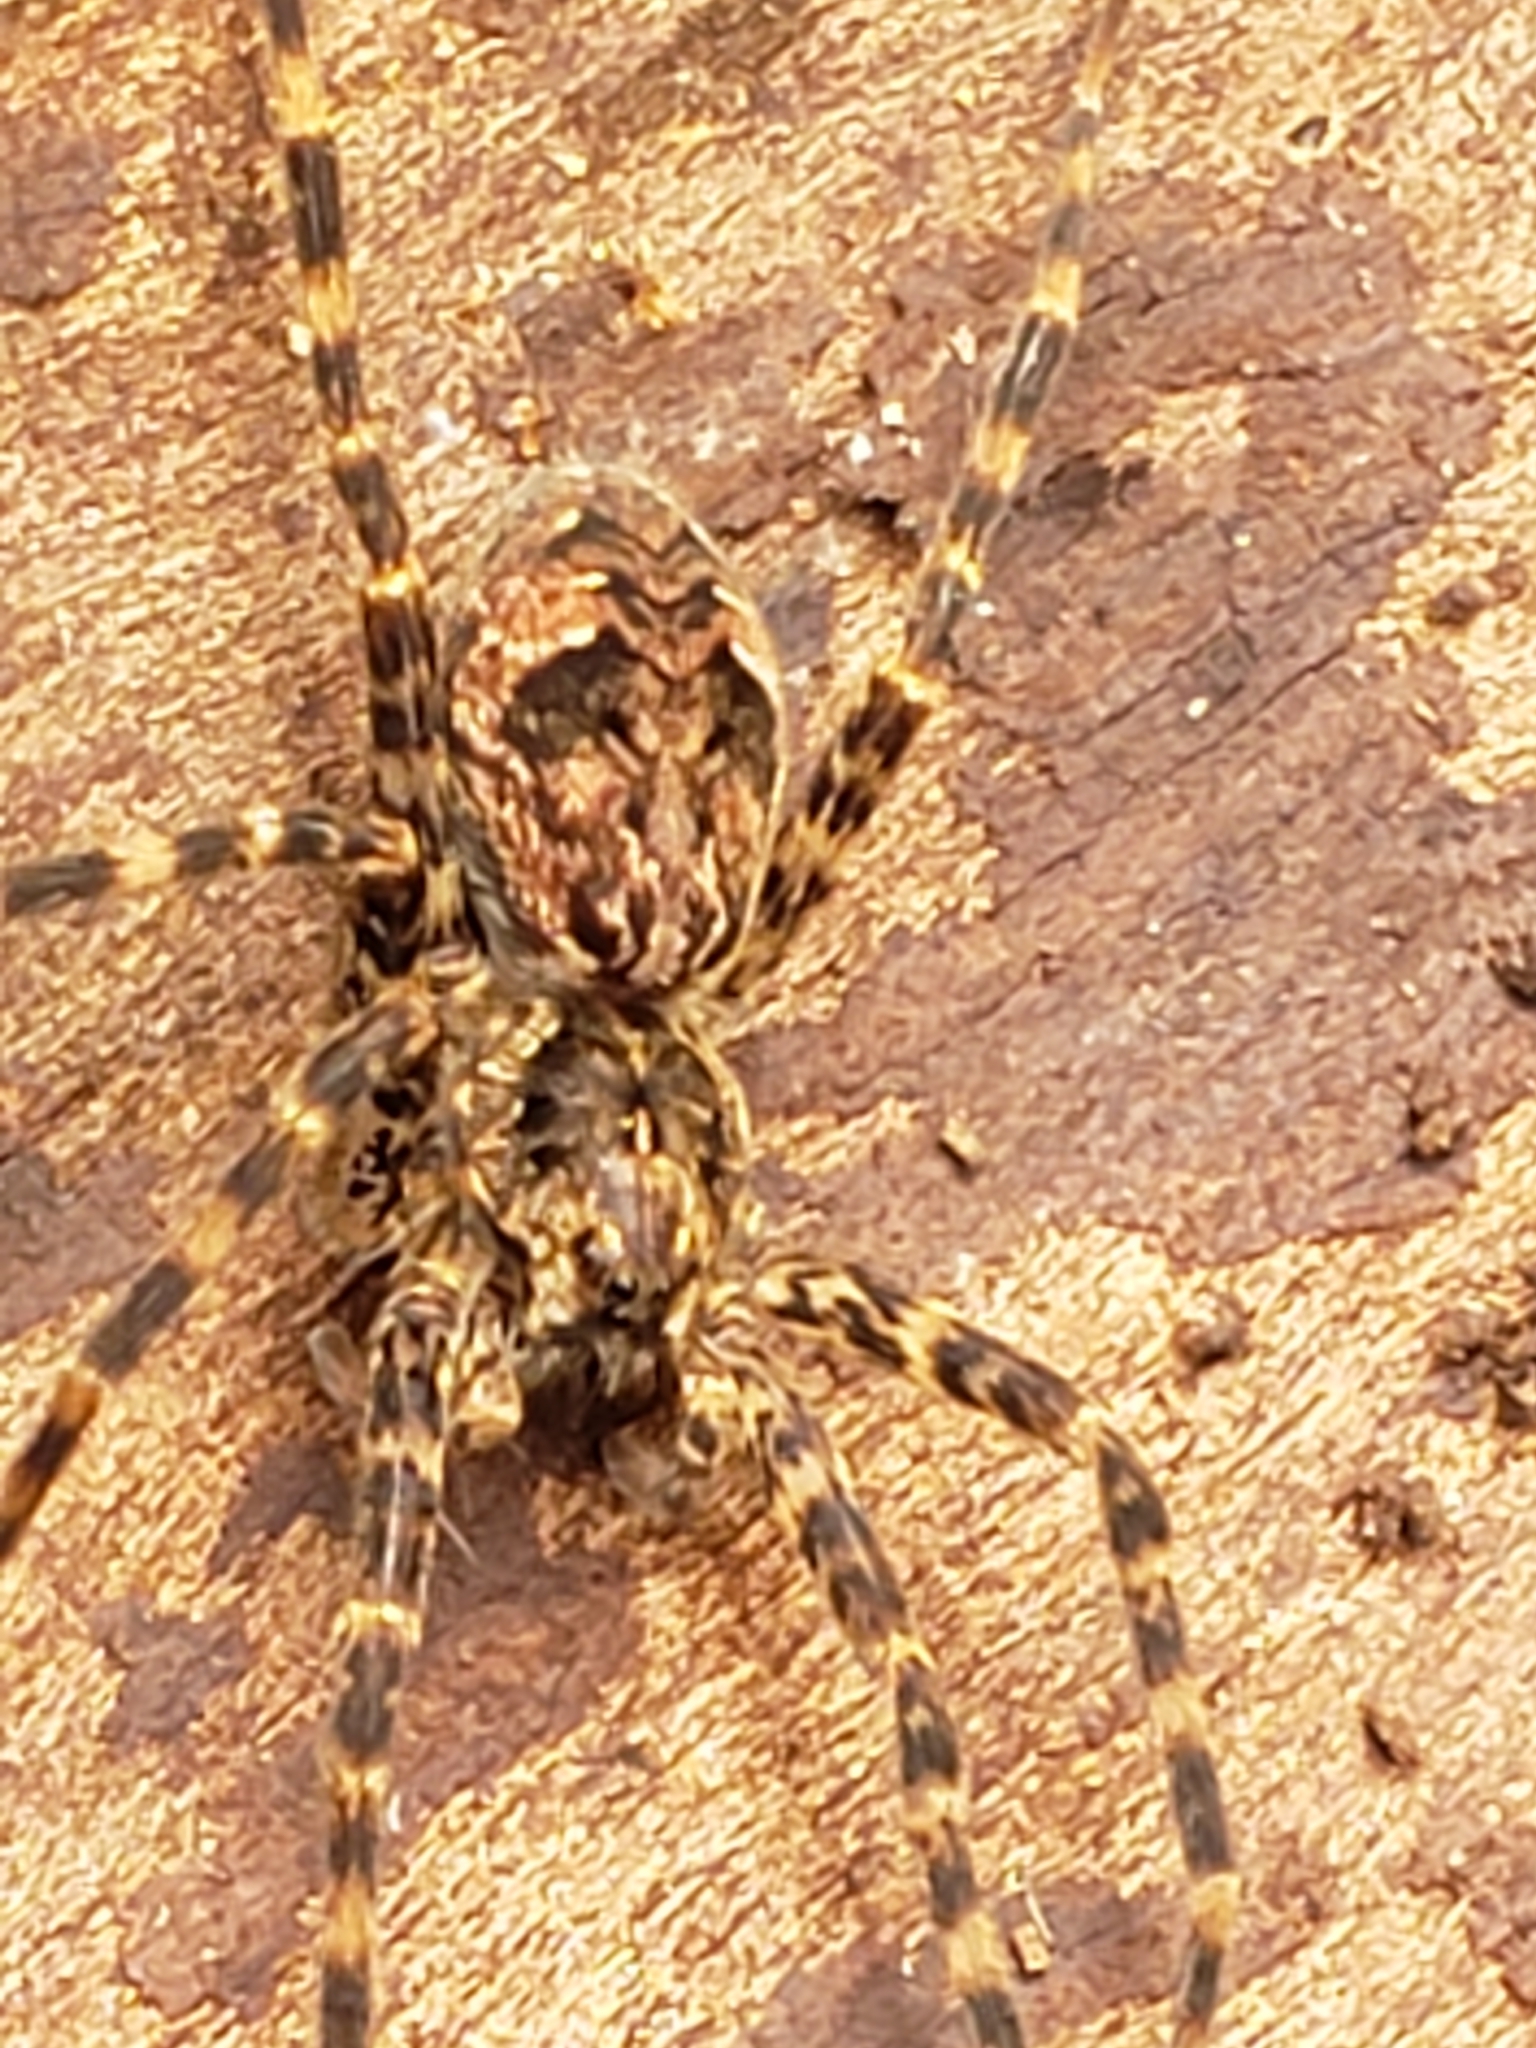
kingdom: Animalia
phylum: Arthropoda
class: Arachnida
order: Araneae
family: Pisauridae
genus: Dolomedes
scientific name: Dolomedes tenebrosus
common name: Dark fishing spider
